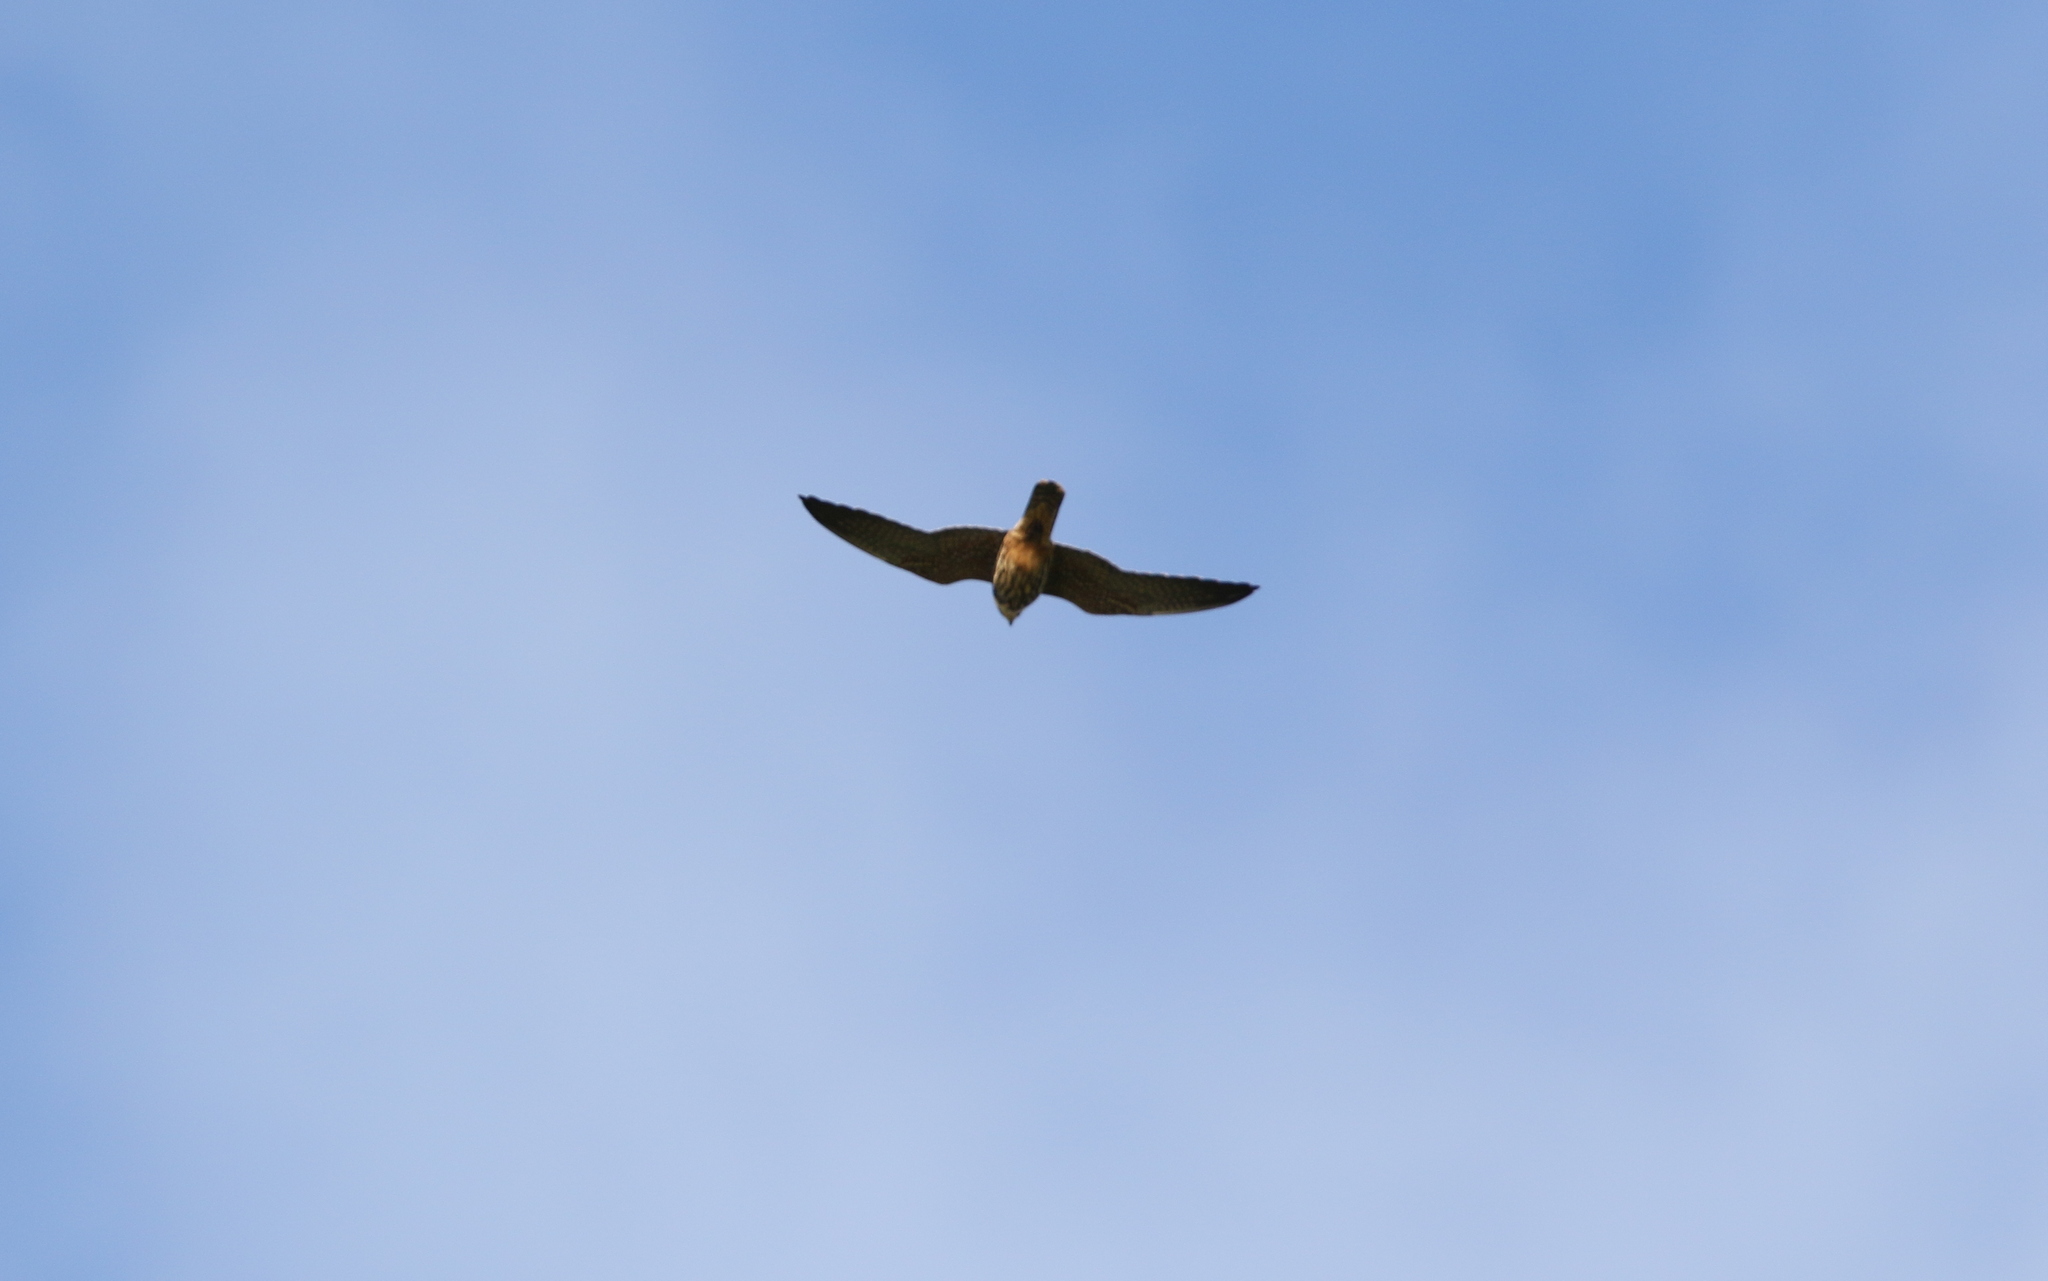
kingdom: Animalia
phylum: Chordata
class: Aves
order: Falconiformes
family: Falconidae
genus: Falco
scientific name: Falco subbuteo
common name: Eurasian hobby
